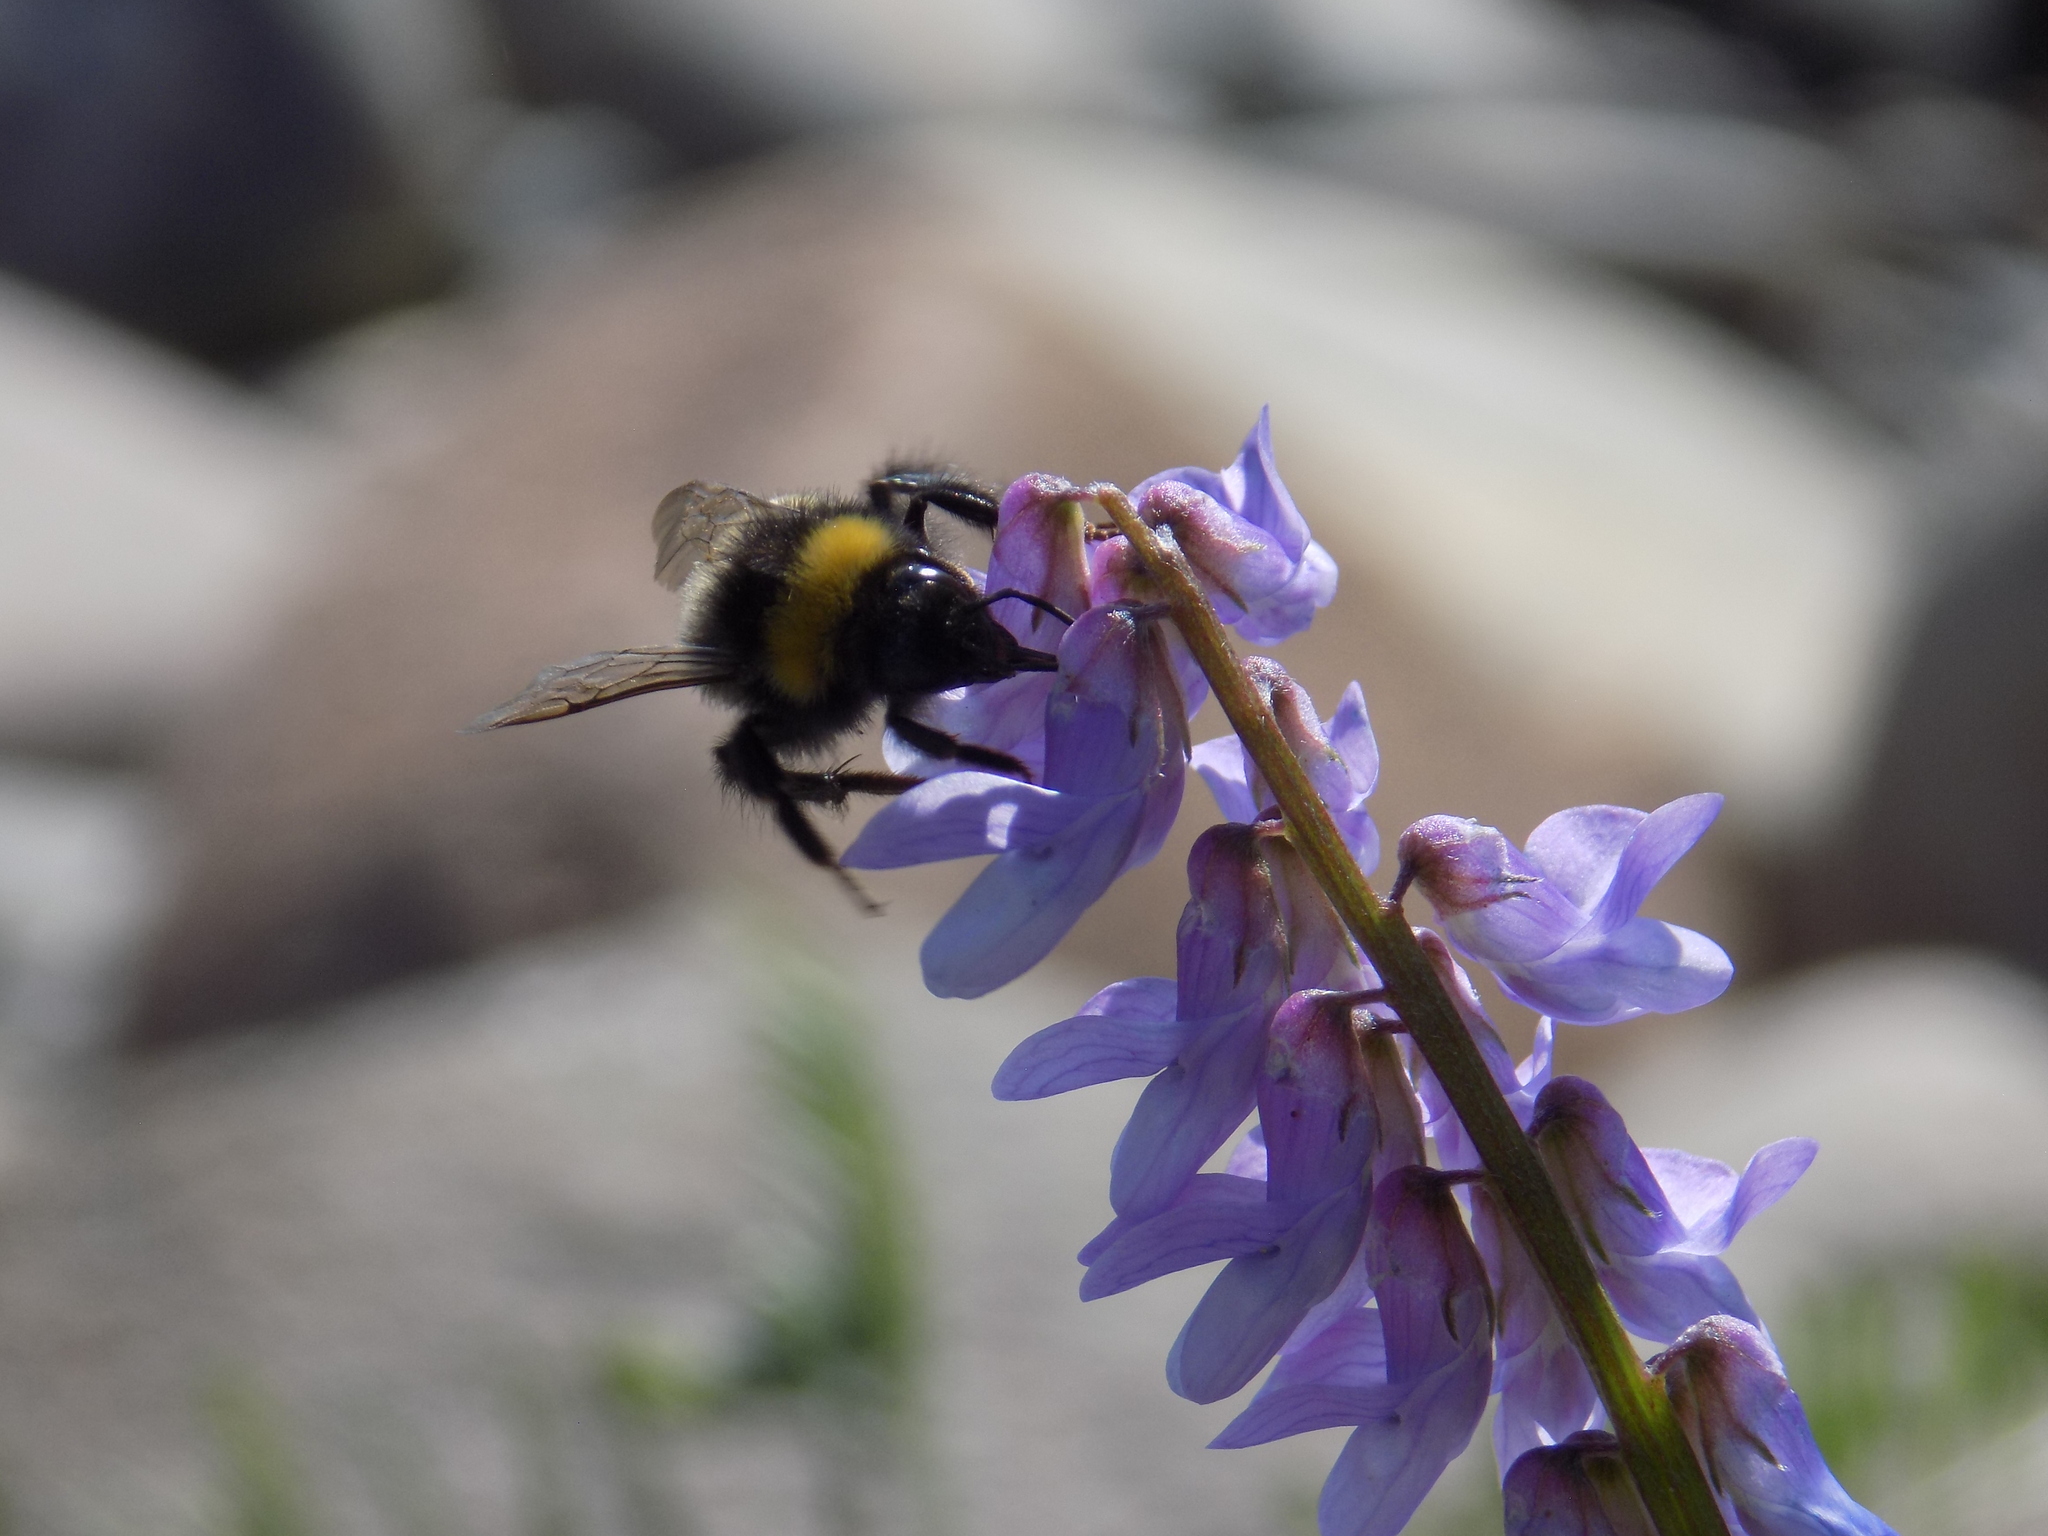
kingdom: Animalia
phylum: Arthropoda
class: Insecta
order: Hymenoptera
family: Apidae
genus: Bombus
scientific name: Bombus
